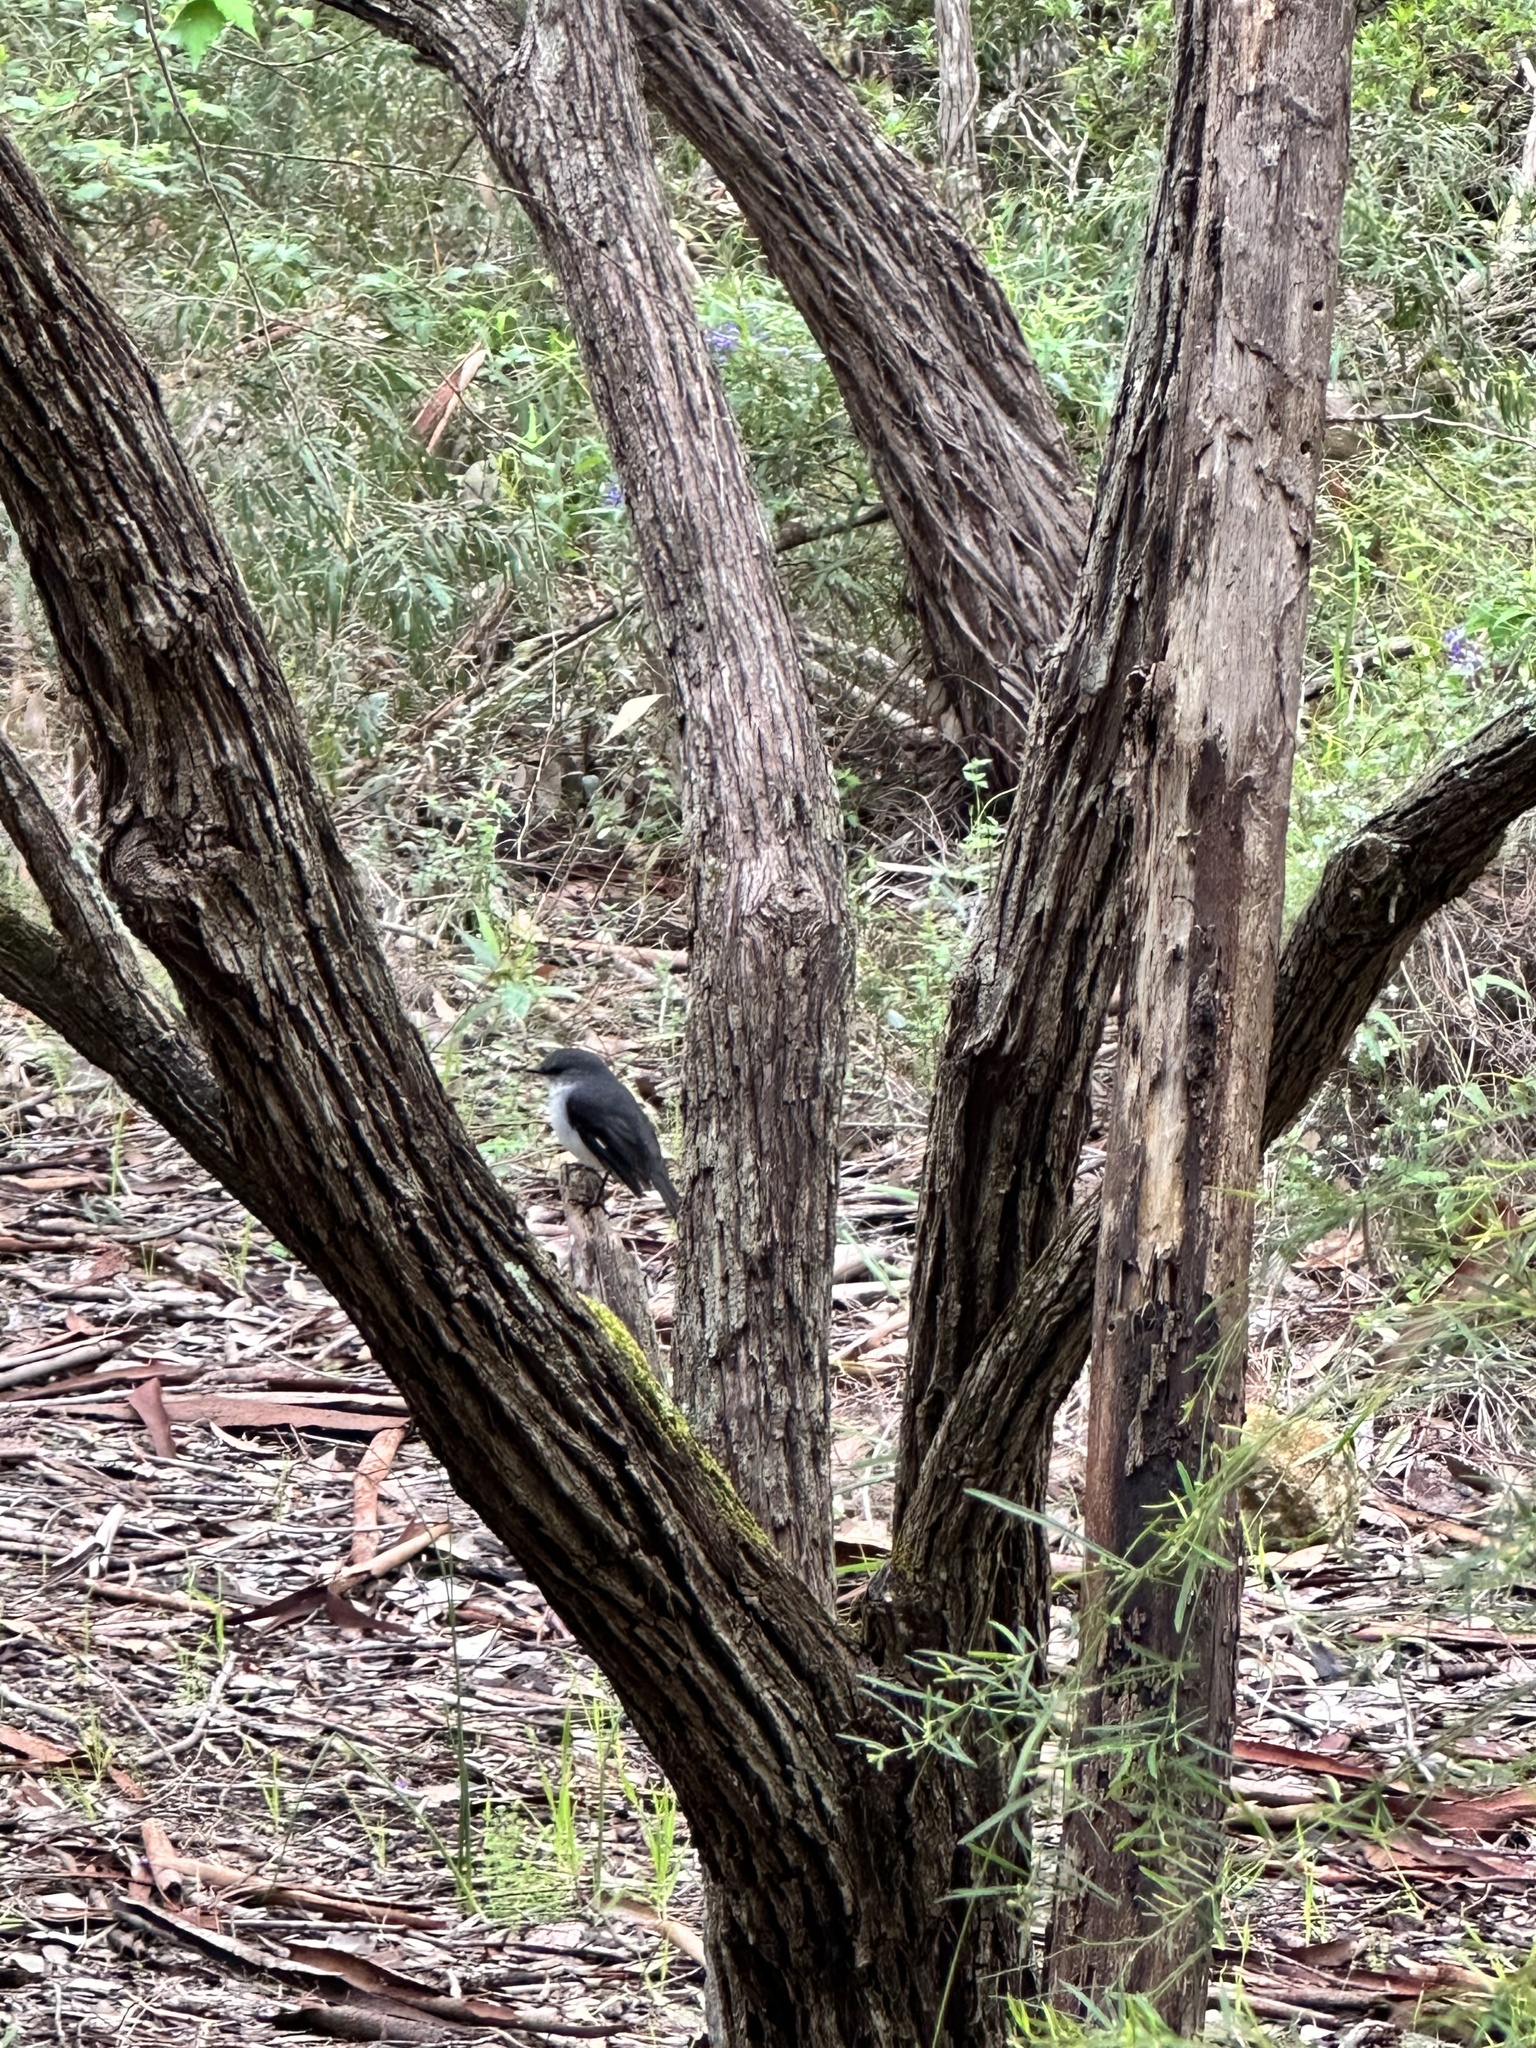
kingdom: Animalia
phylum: Chordata
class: Aves
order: Passeriformes
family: Petroicidae
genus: Eopsaltria
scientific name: Eopsaltria georgiana
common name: White-breasted robin
